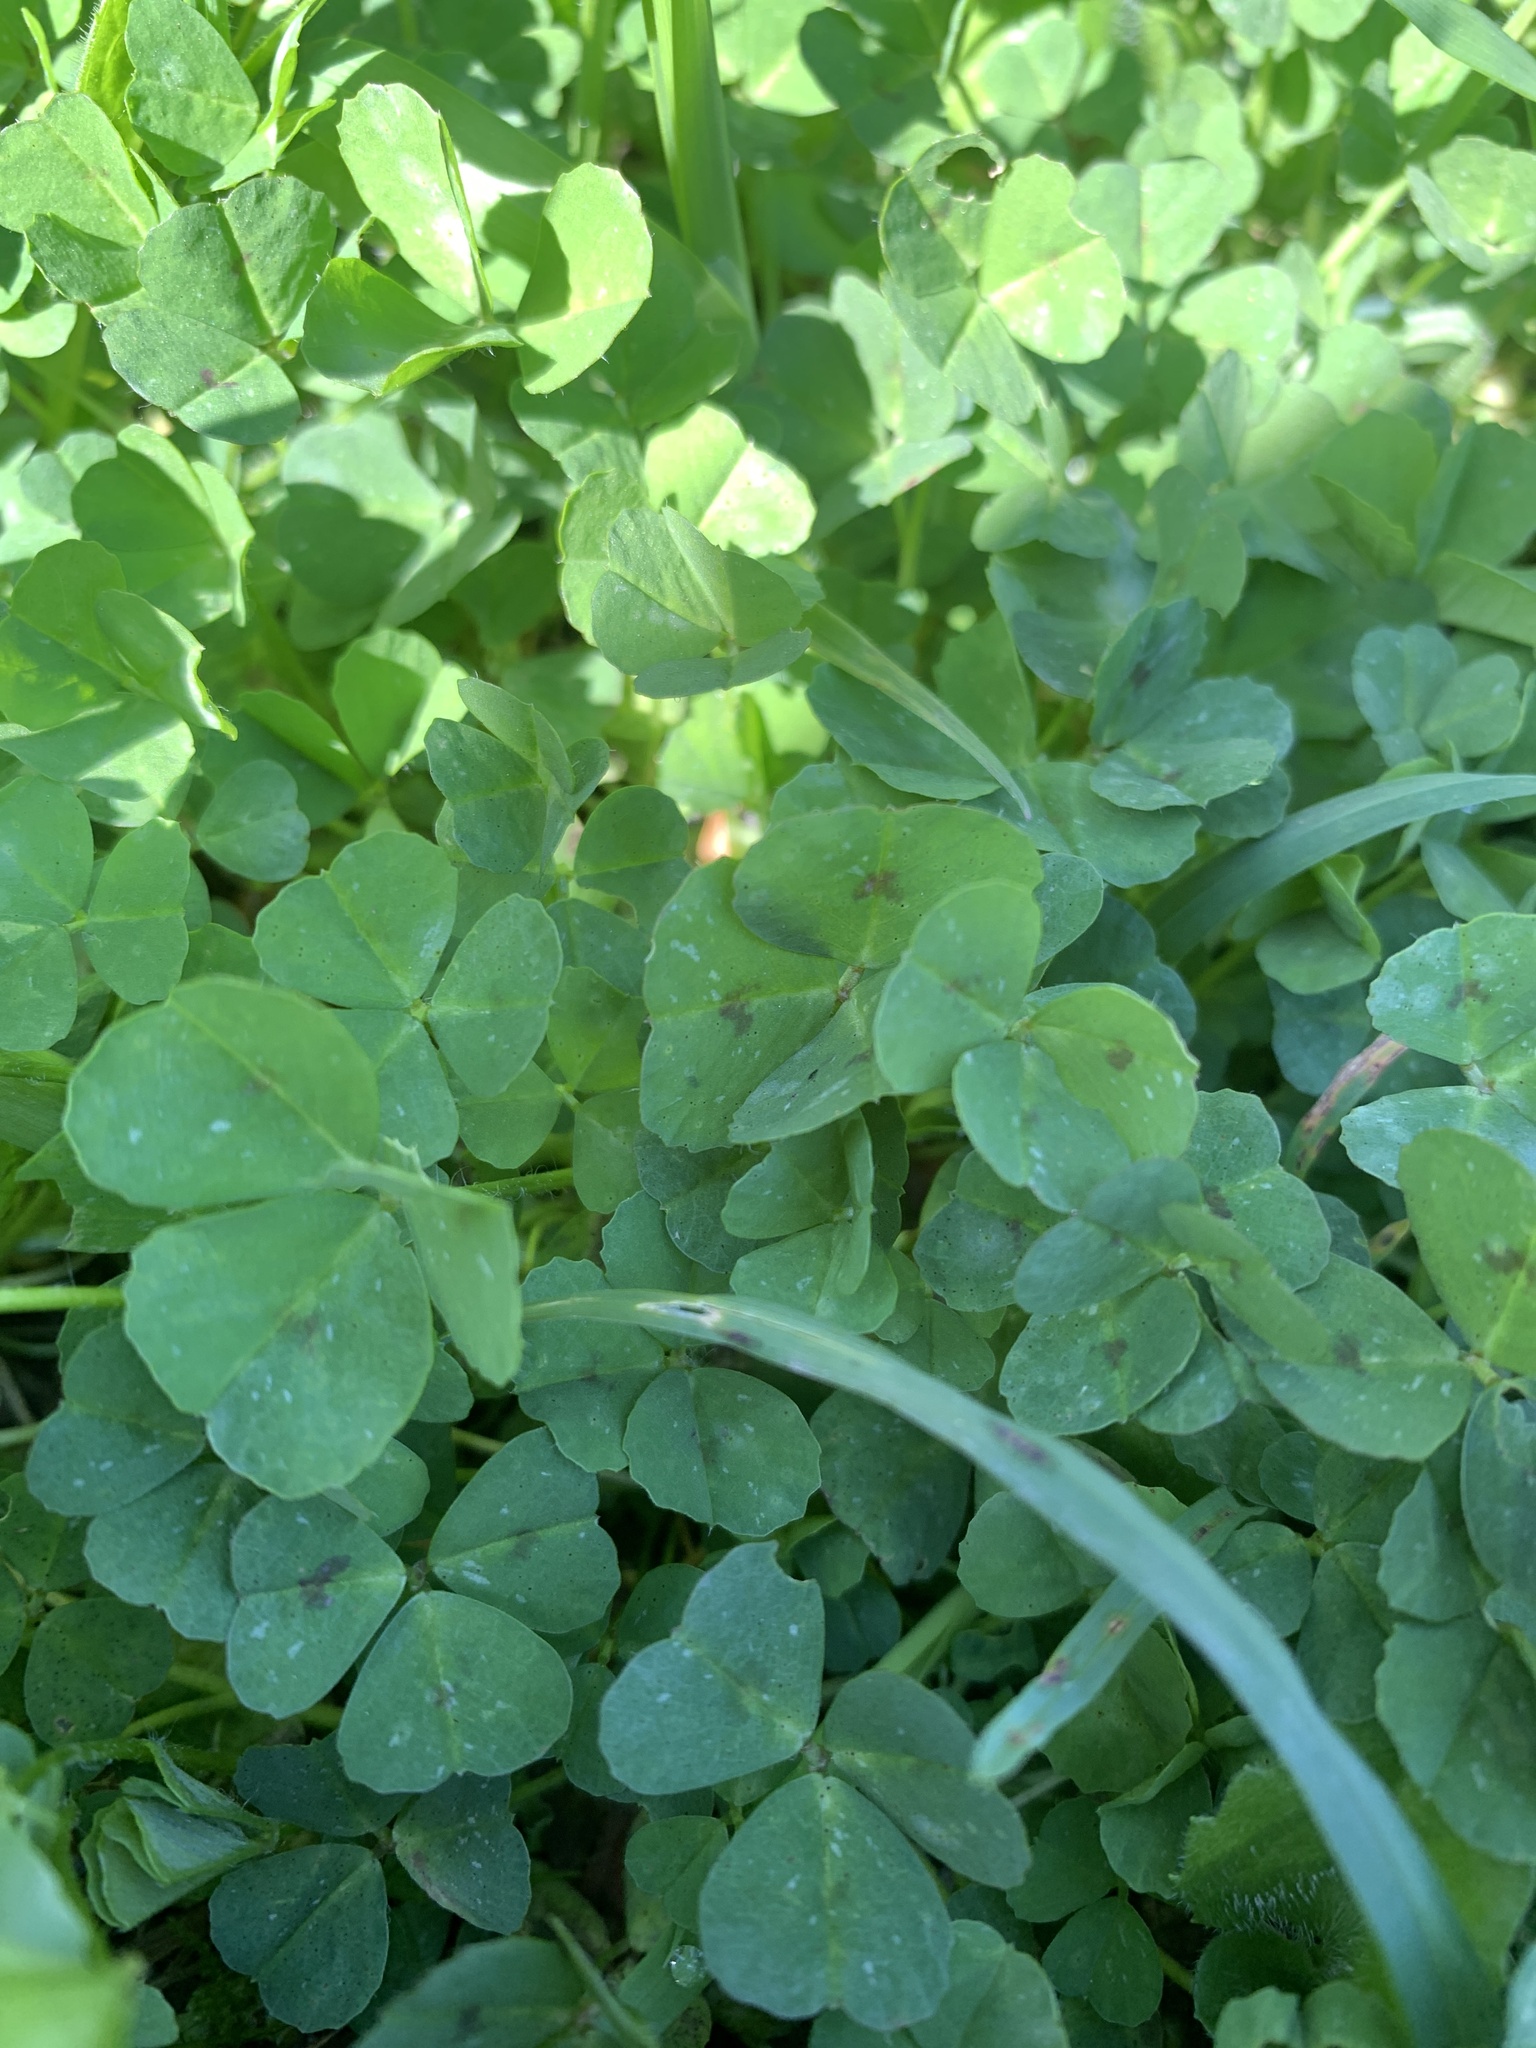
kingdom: Plantae
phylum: Tracheophyta
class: Magnoliopsida
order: Fabales
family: Fabaceae
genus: Medicago
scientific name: Medicago arabica
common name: Spotted medick
